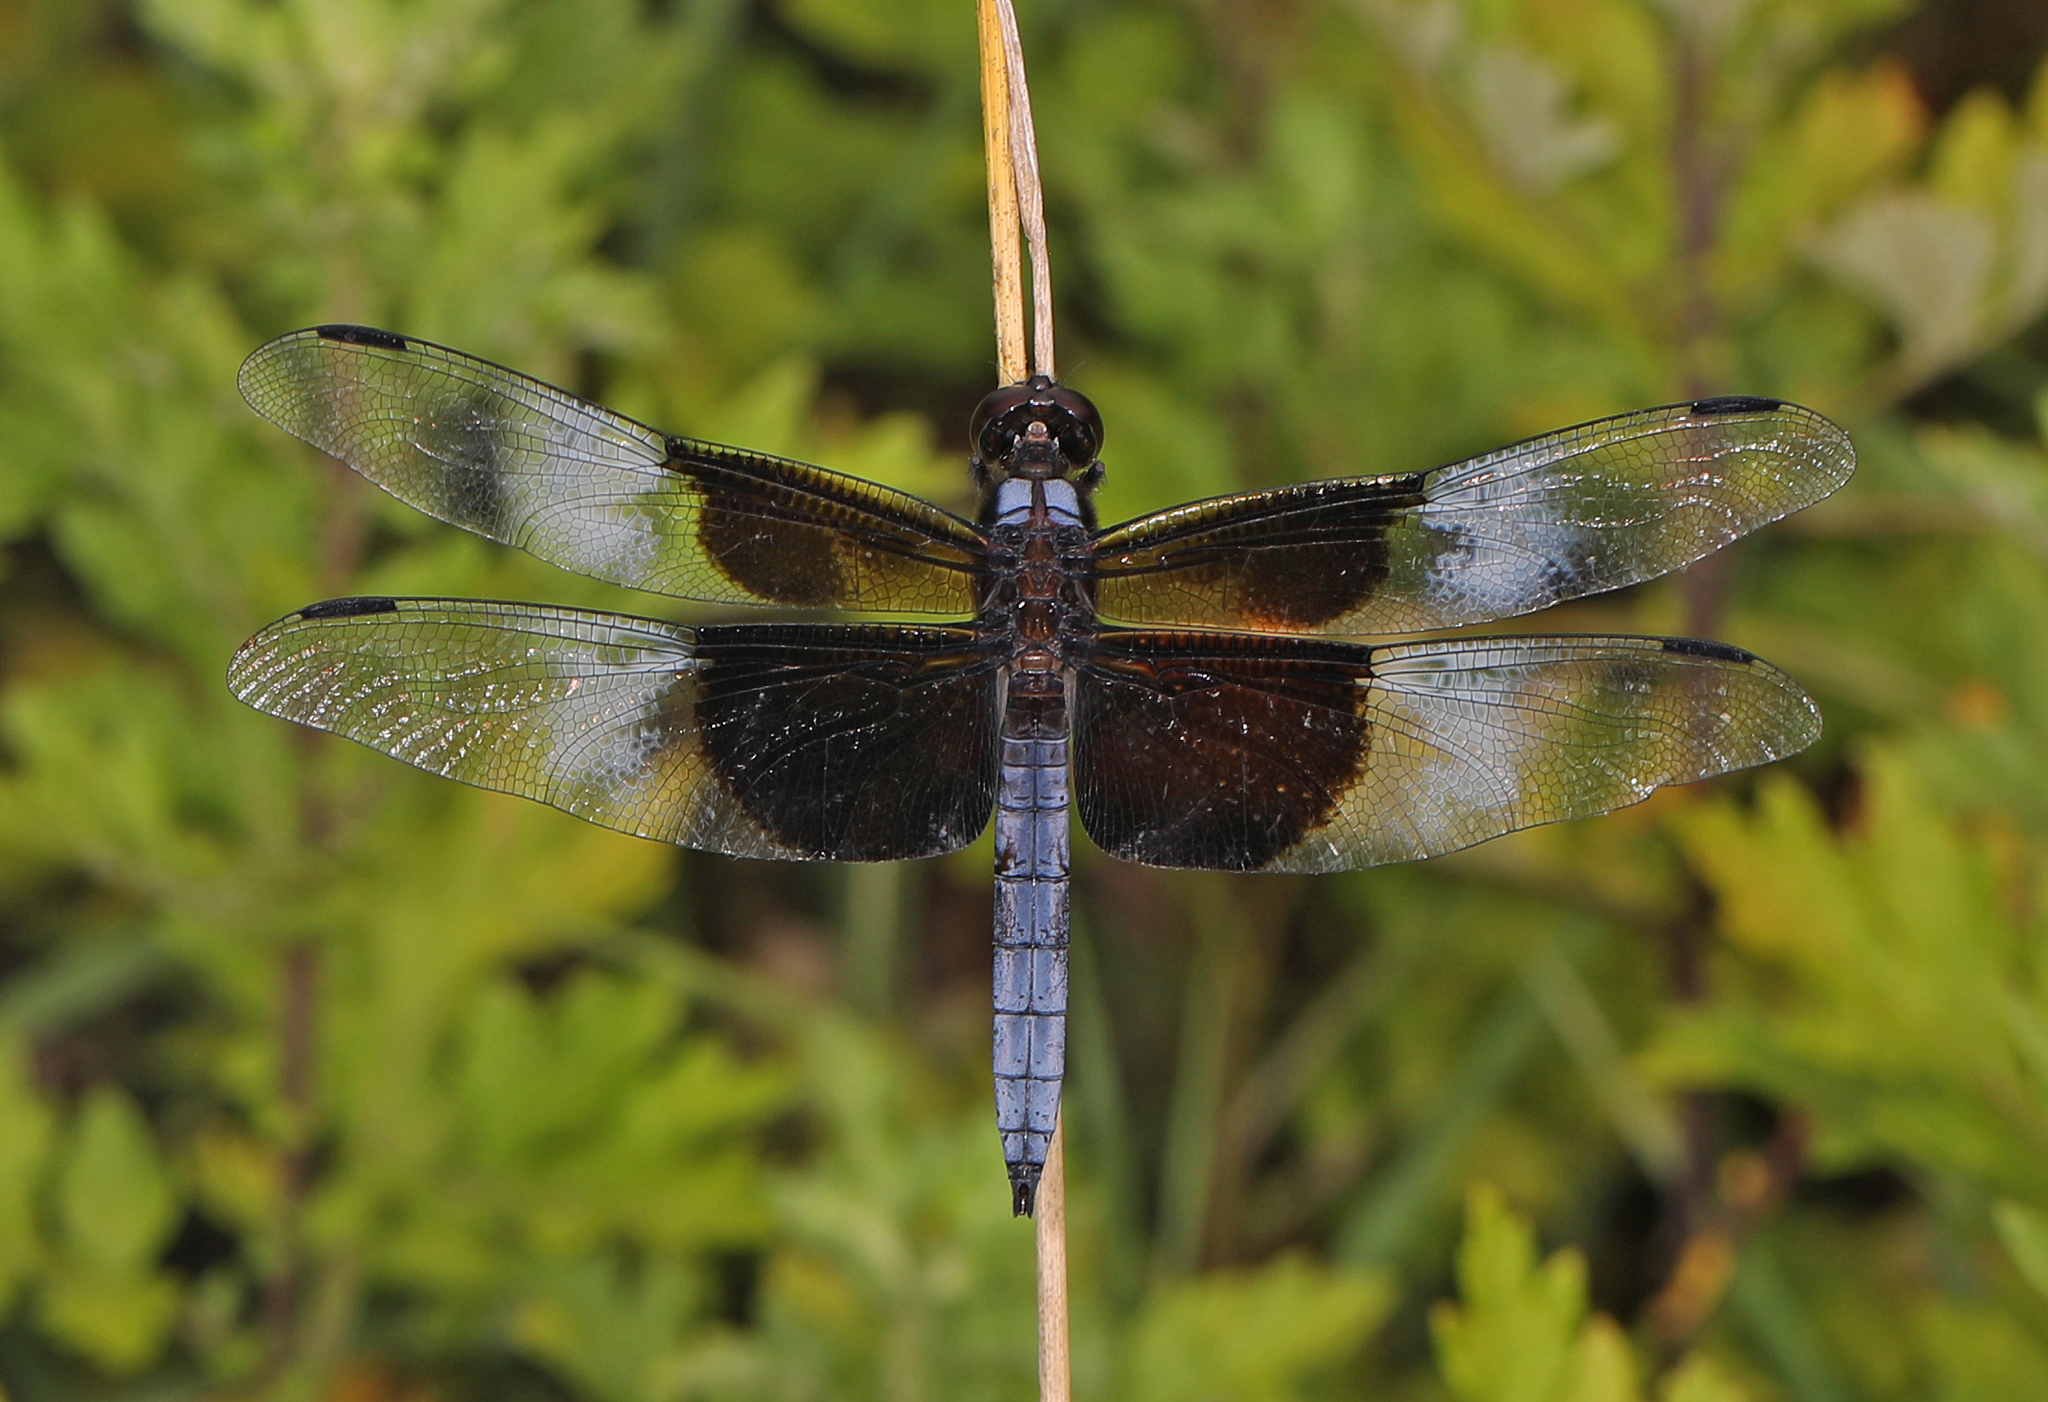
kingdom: Animalia
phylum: Arthropoda
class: Insecta
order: Odonata
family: Libellulidae
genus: Libellula
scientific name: Libellula luctuosa
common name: Widow skimmer
